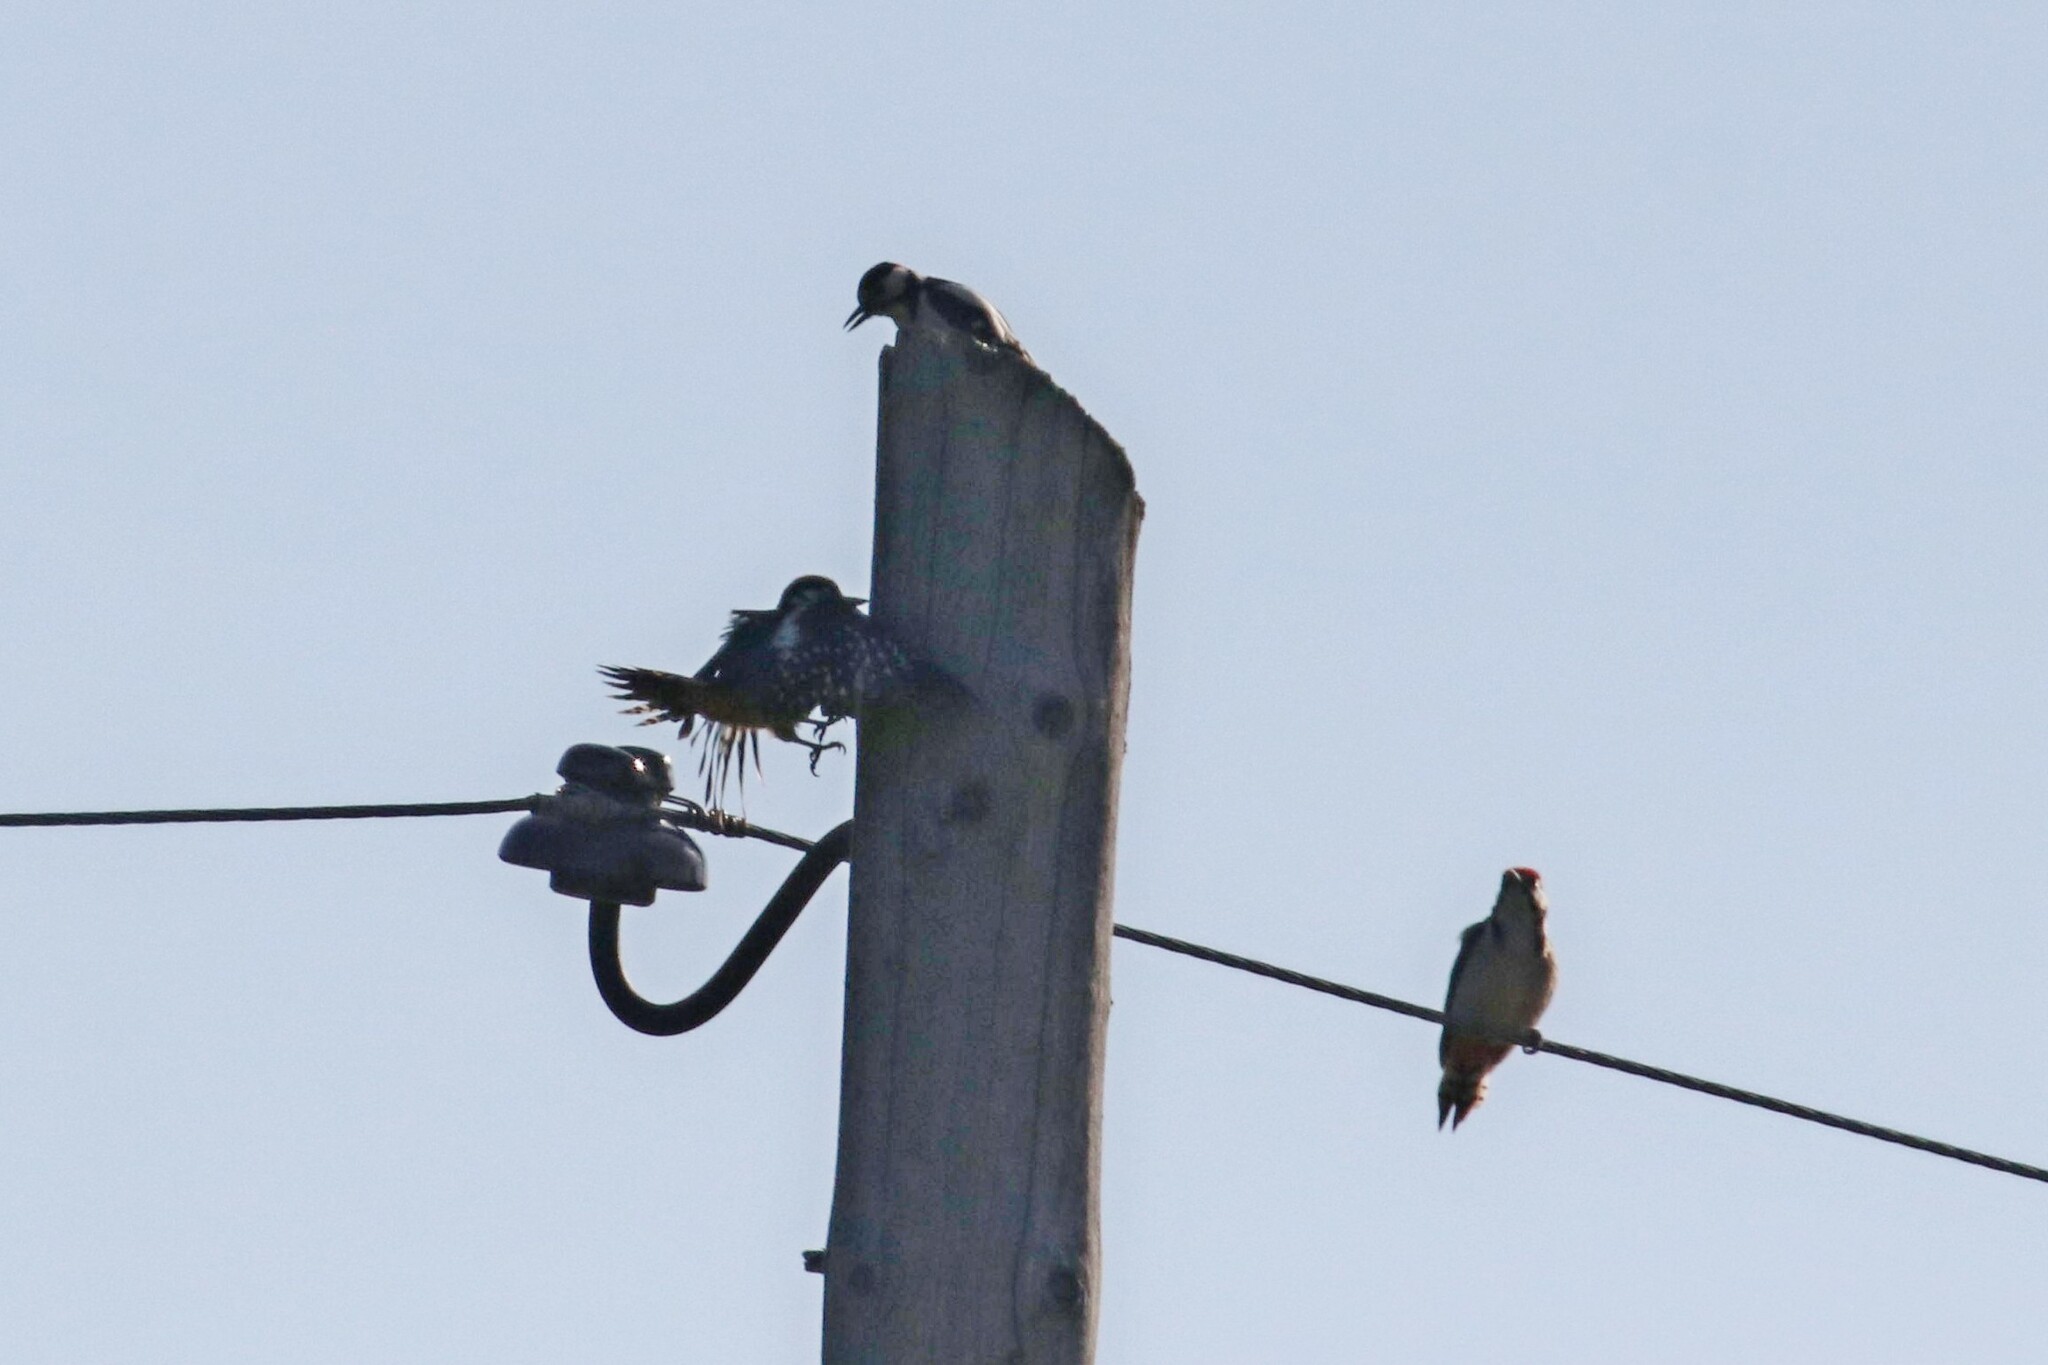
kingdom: Animalia
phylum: Chordata
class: Aves
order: Piciformes
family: Picidae
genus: Dendrocopos
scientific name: Dendrocopos major
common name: Great spotted woodpecker
